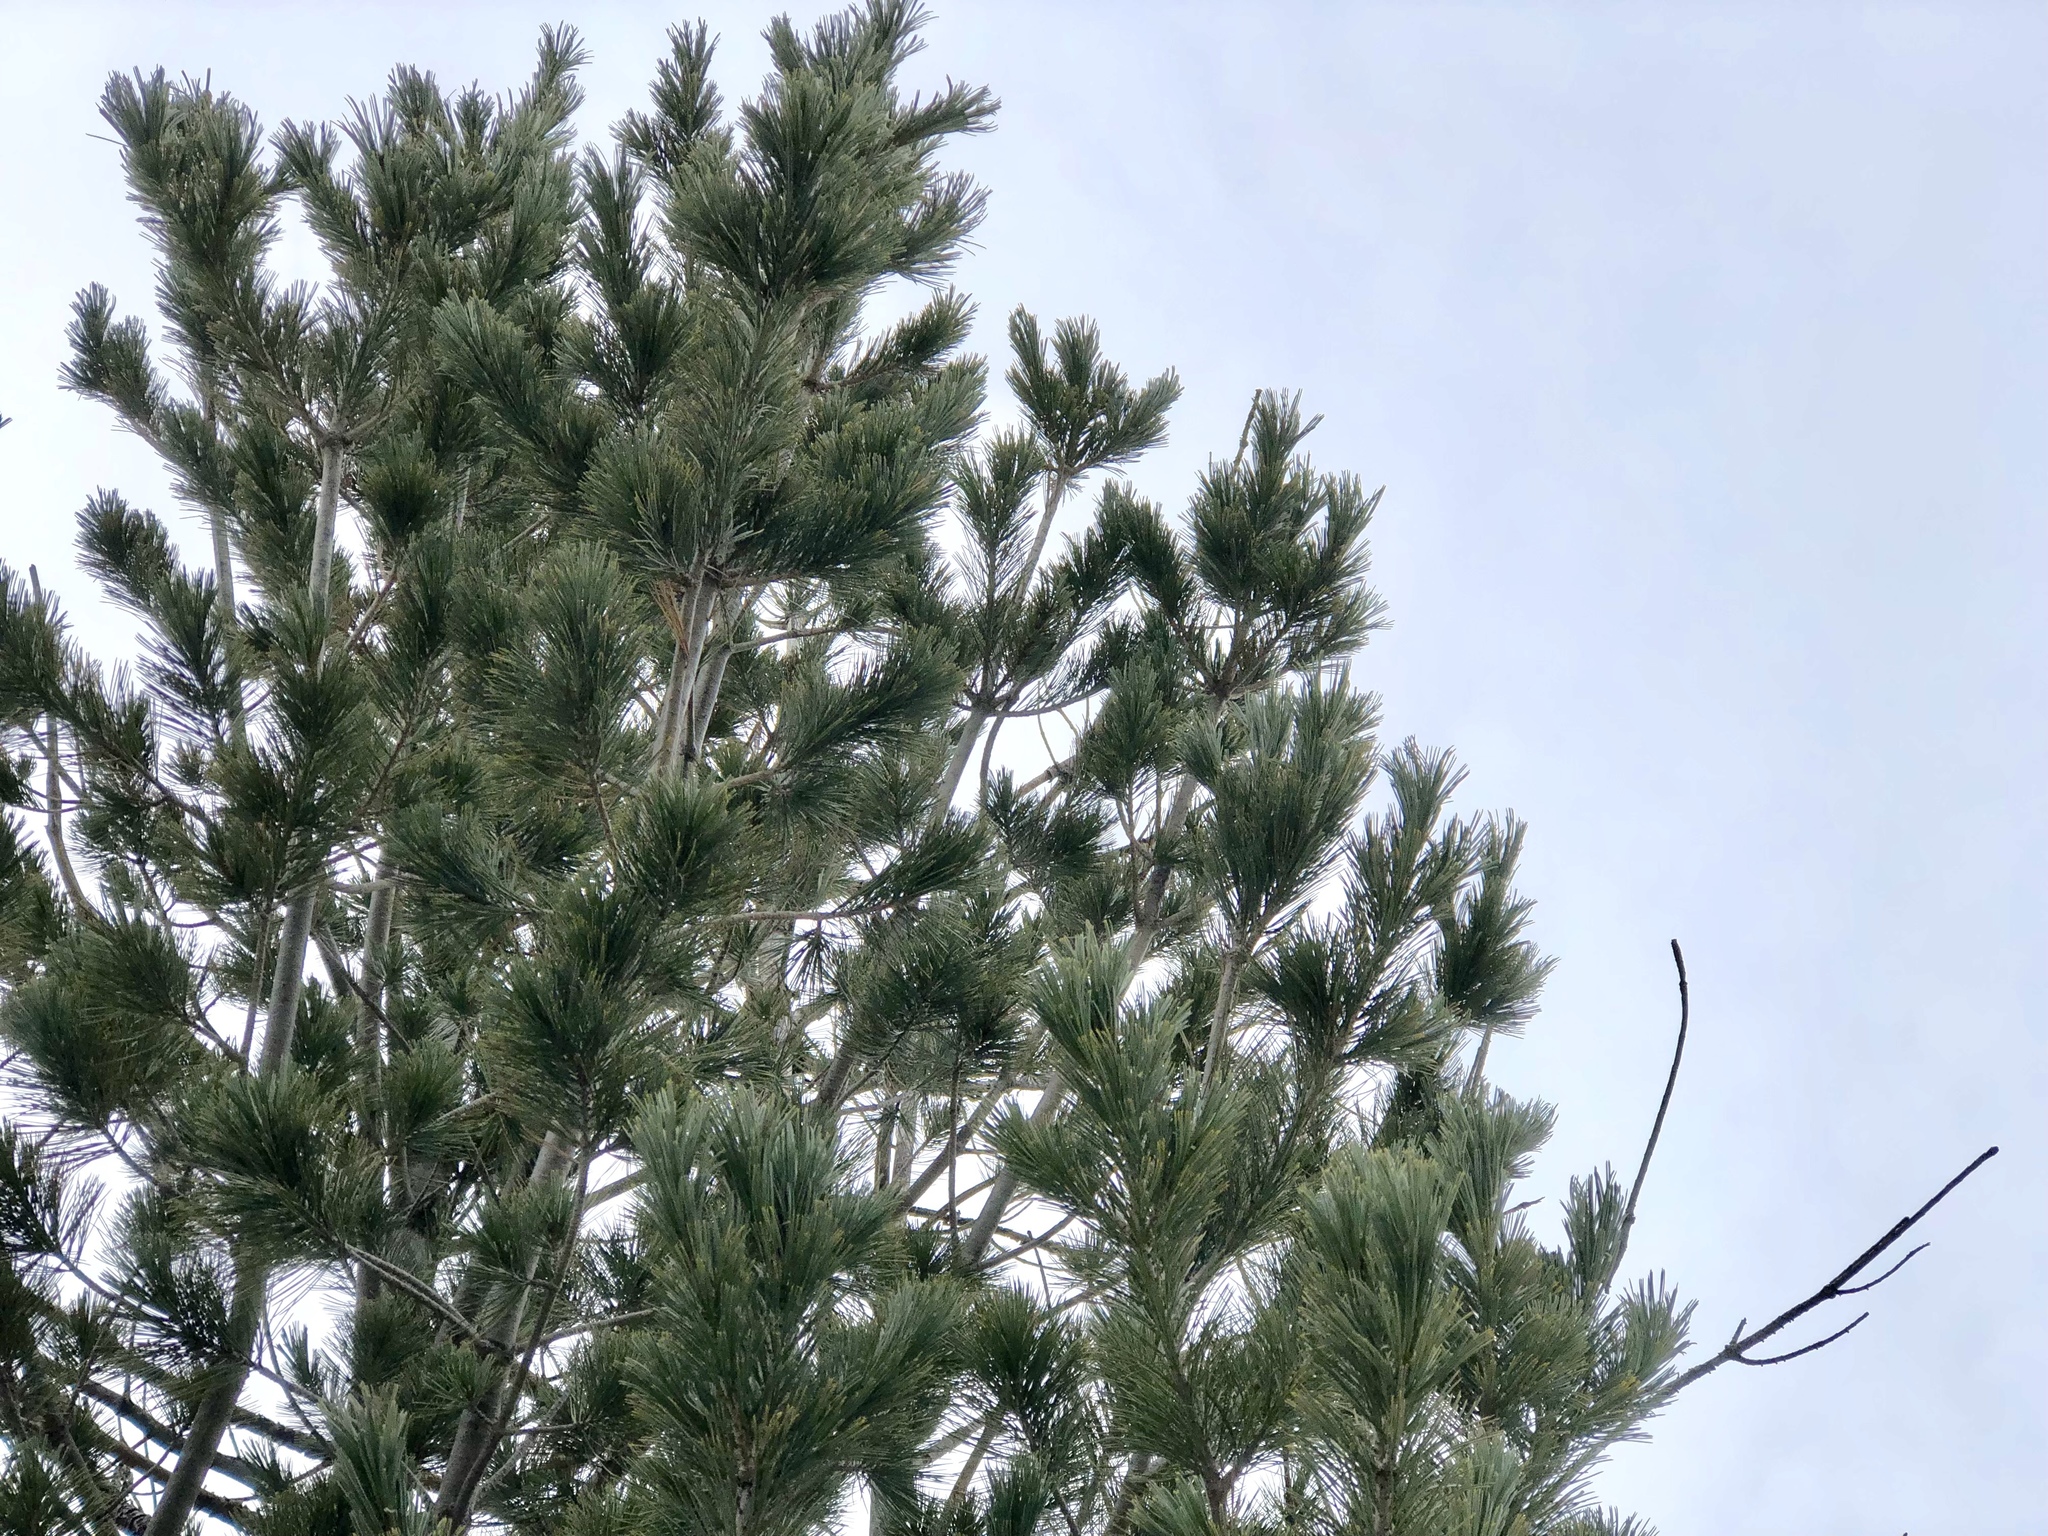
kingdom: Plantae
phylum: Tracheophyta
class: Pinopsida
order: Pinales
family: Pinaceae
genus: Pinus
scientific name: Pinus strobiformis
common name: Southwestern white pine
